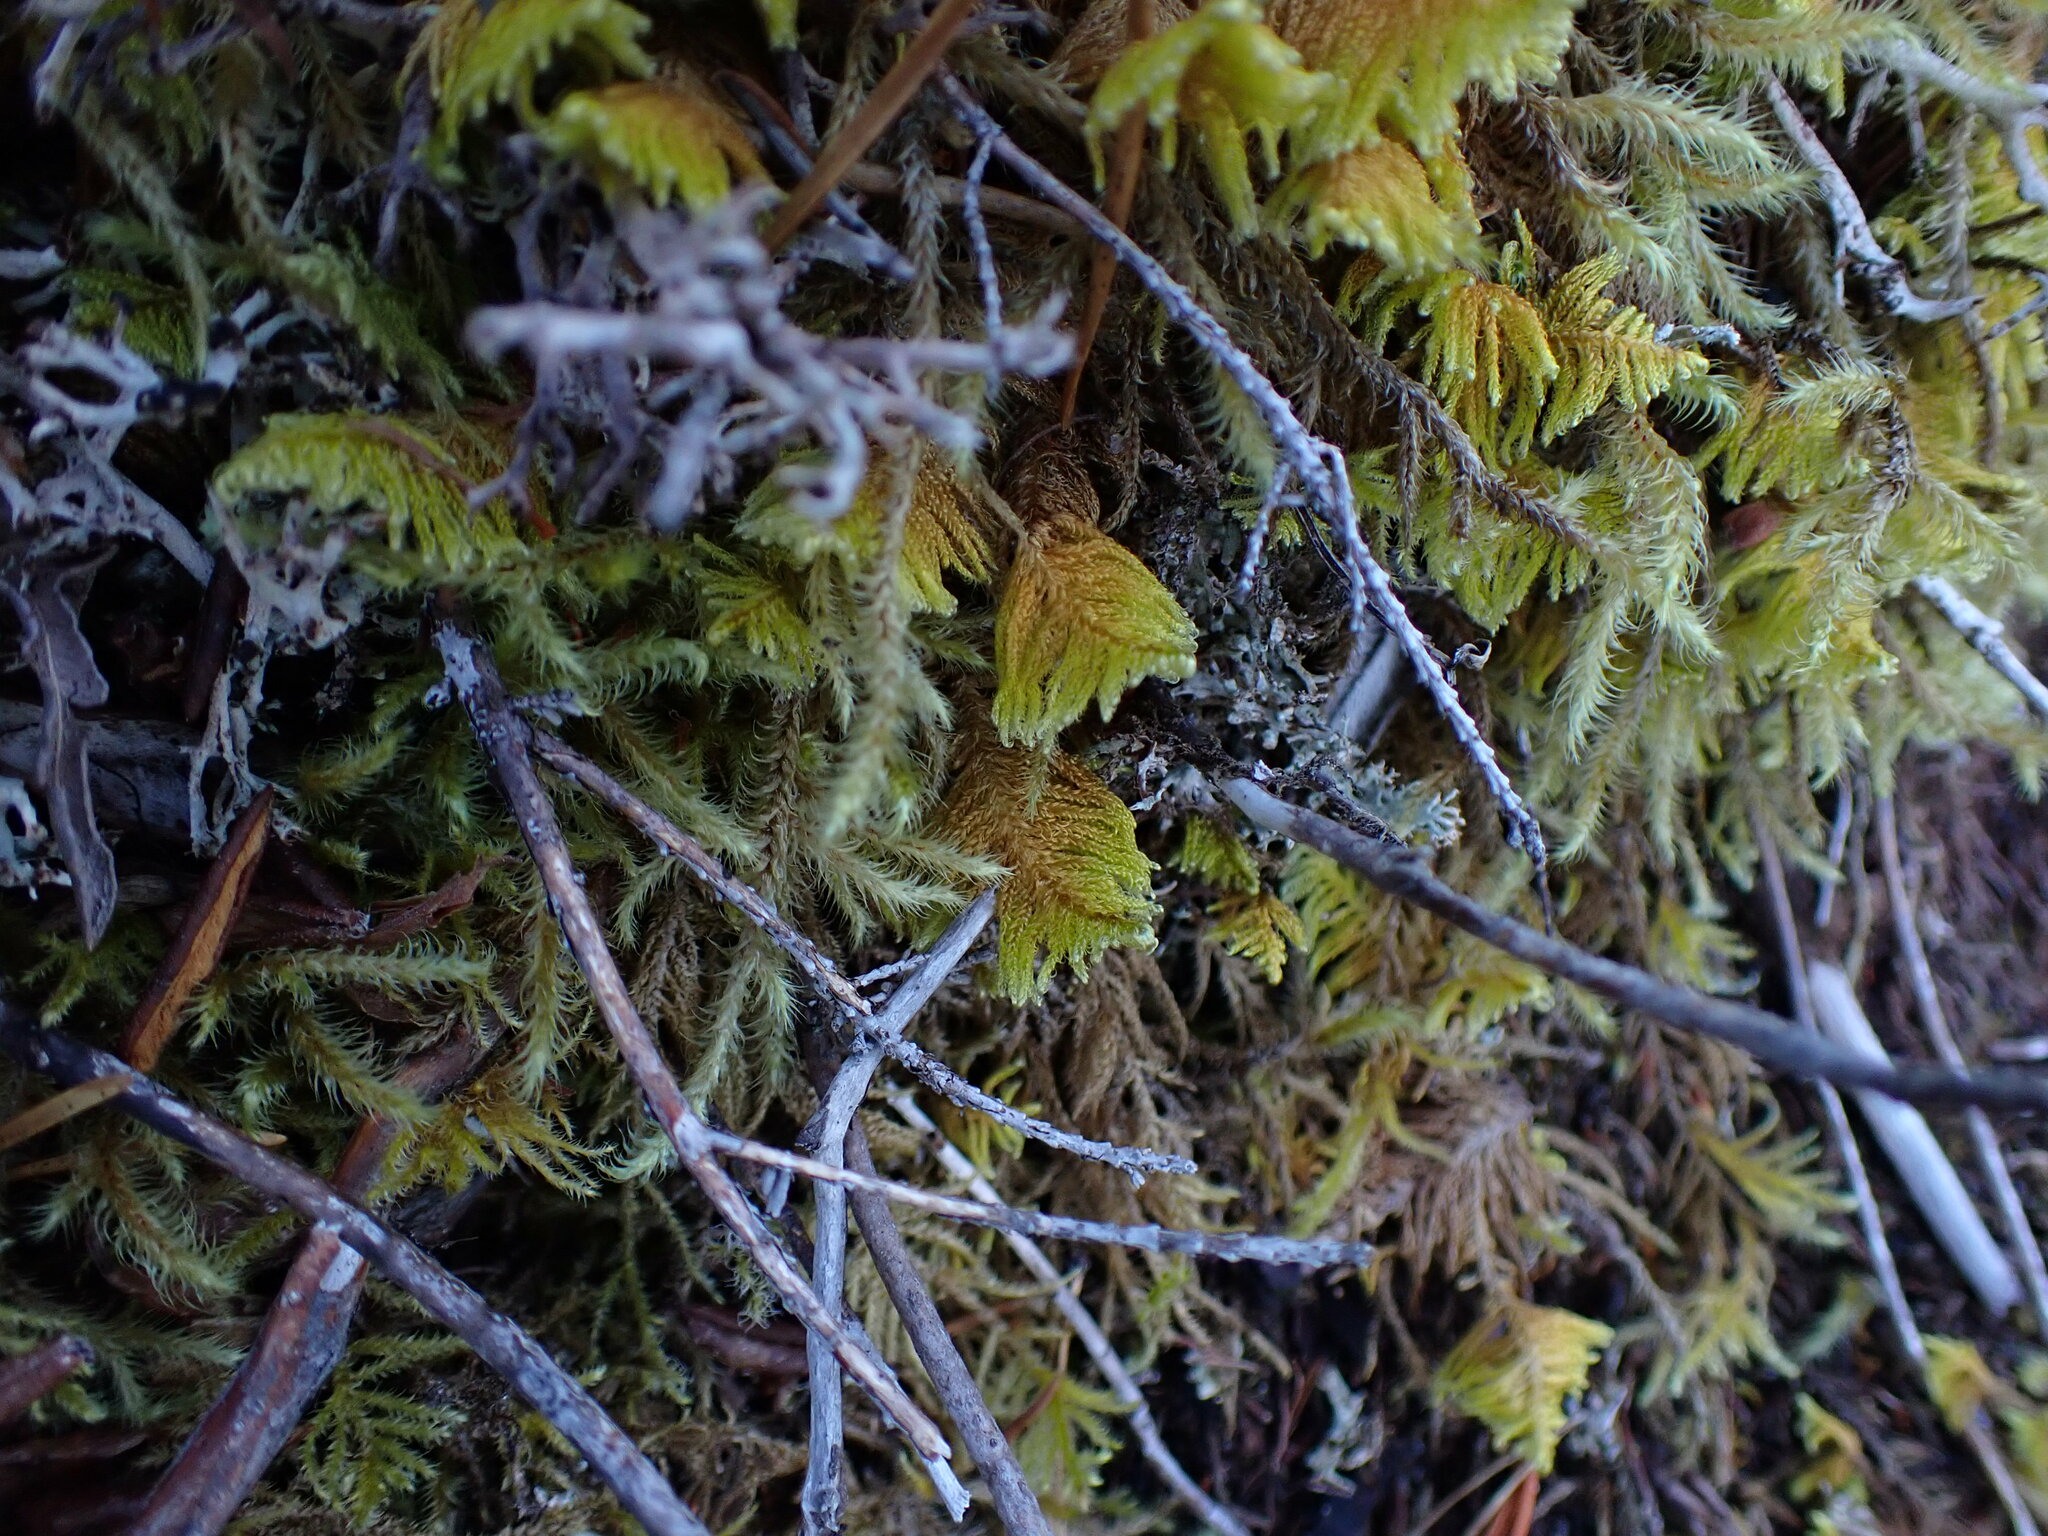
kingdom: Plantae
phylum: Bryophyta
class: Bryopsida
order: Hypnales
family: Pylaisiaceae
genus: Ptilium
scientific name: Ptilium crista-castrensis
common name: Knight's plume moss
